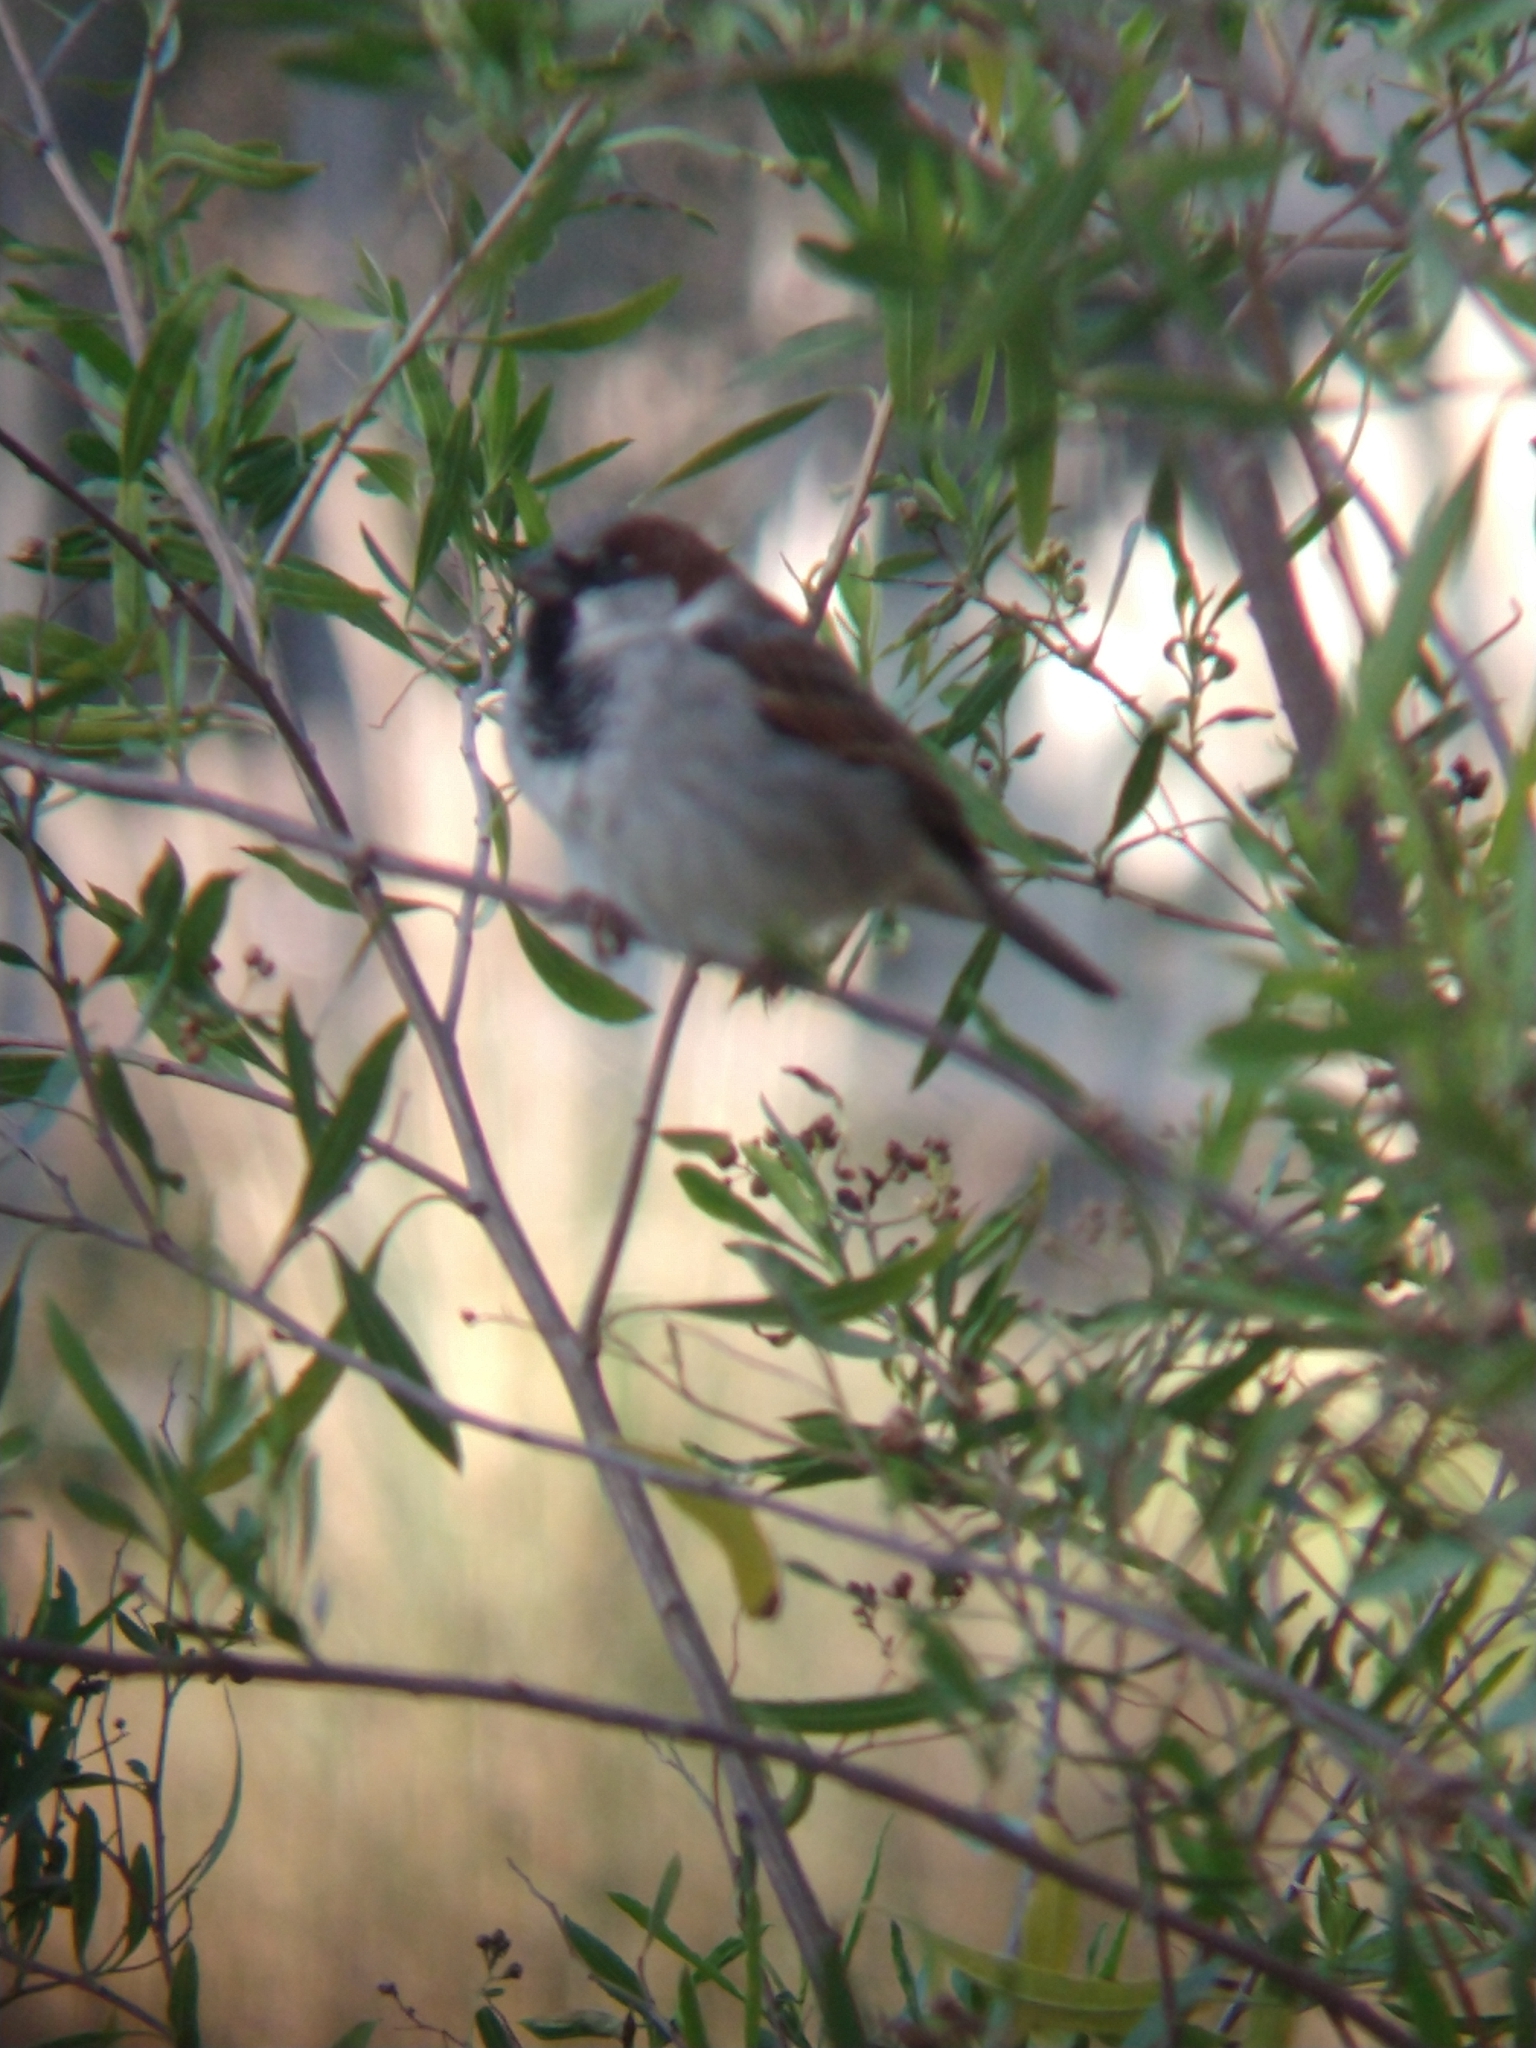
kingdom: Animalia
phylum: Chordata
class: Aves
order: Passeriformes
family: Passeridae
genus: Passer
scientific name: Passer domesticus
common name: House sparrow
